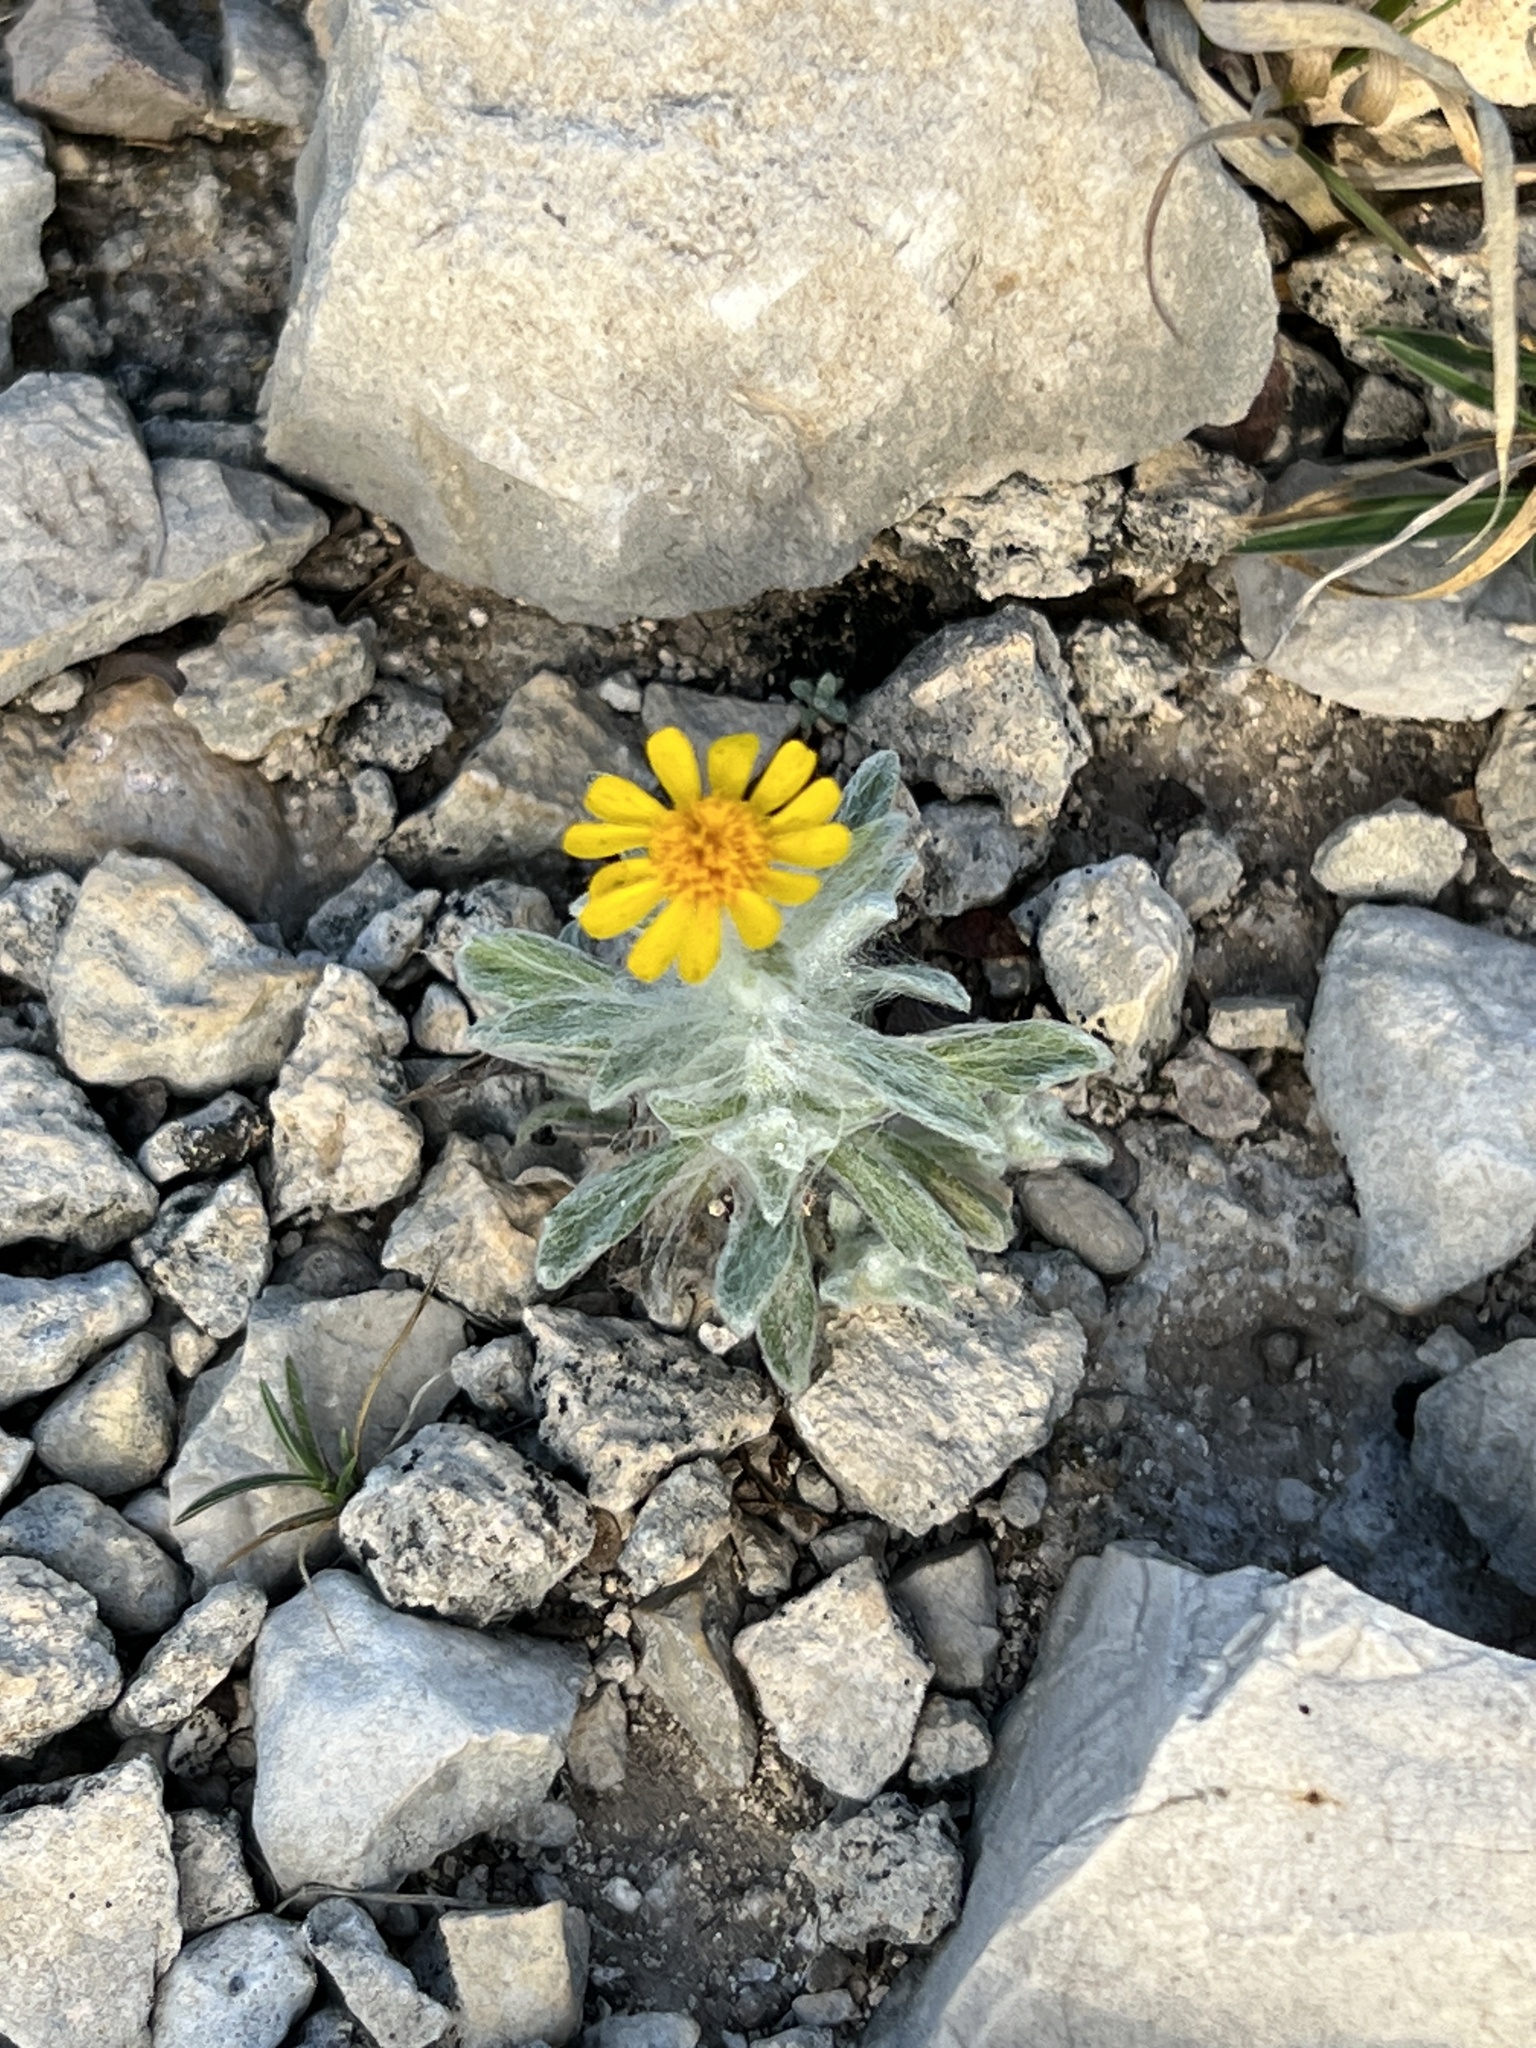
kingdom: Plantae
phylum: Tracheophyta
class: Magnoliopsida
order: Asterales
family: Asteraceae
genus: Thymophylla
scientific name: Thymophylla micropoides
